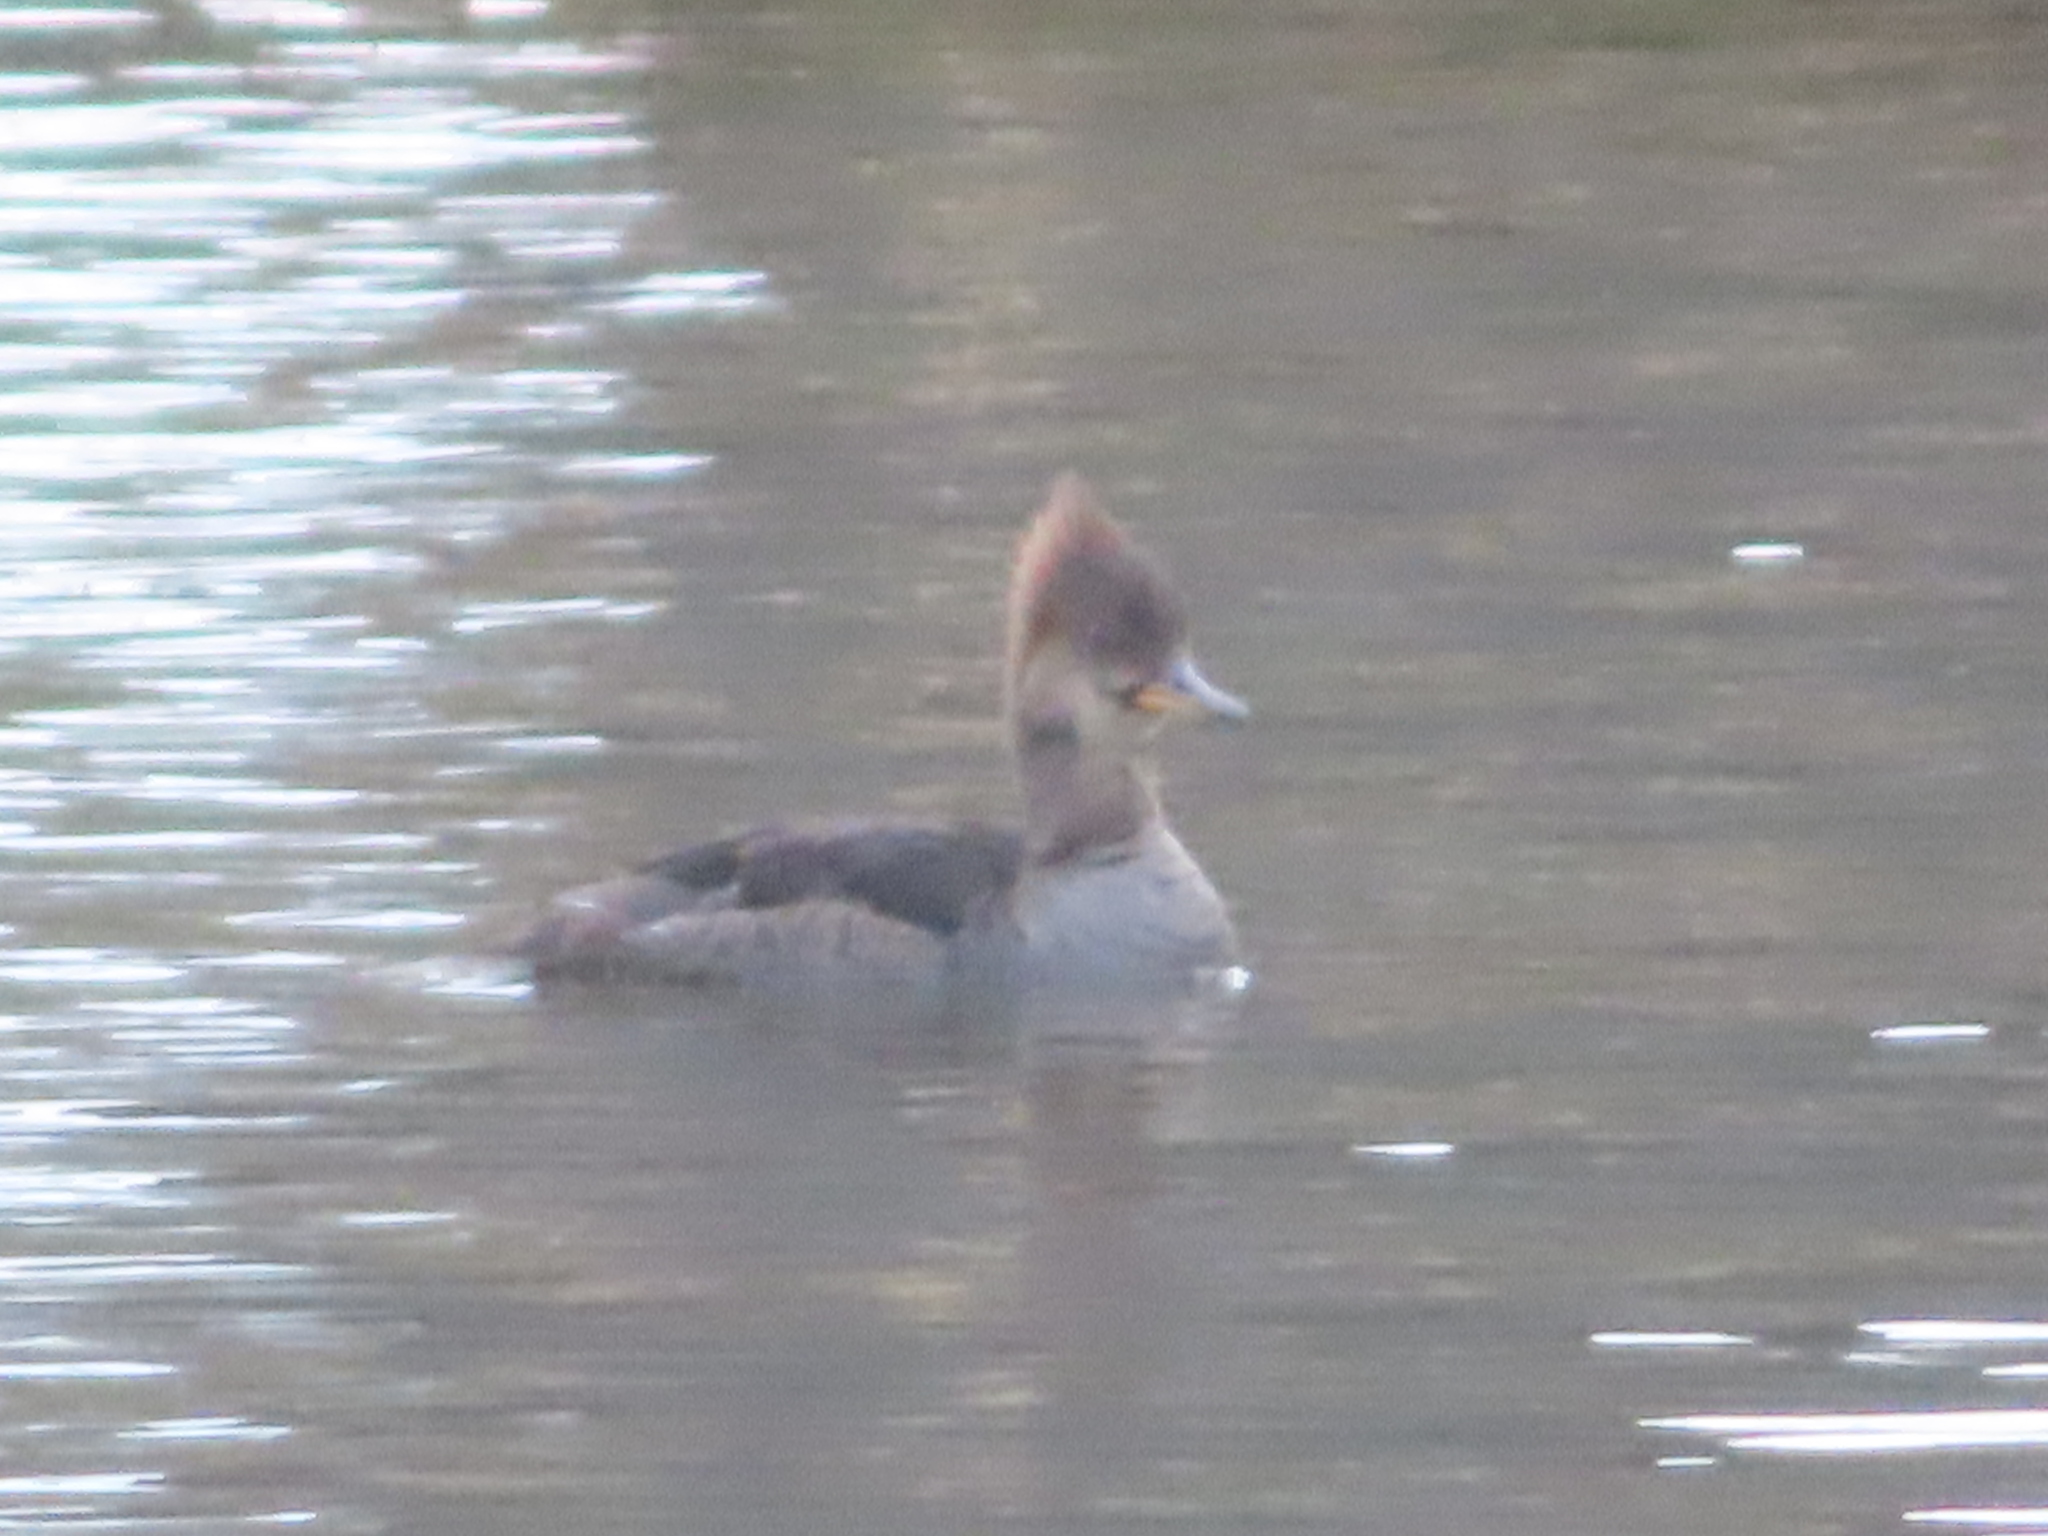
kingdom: Animalia
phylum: Chordata
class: Aves
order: Anseriformes
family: Anatidae
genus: Lophodytes
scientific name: Lophodytes cucullatus
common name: Hooded merganser
